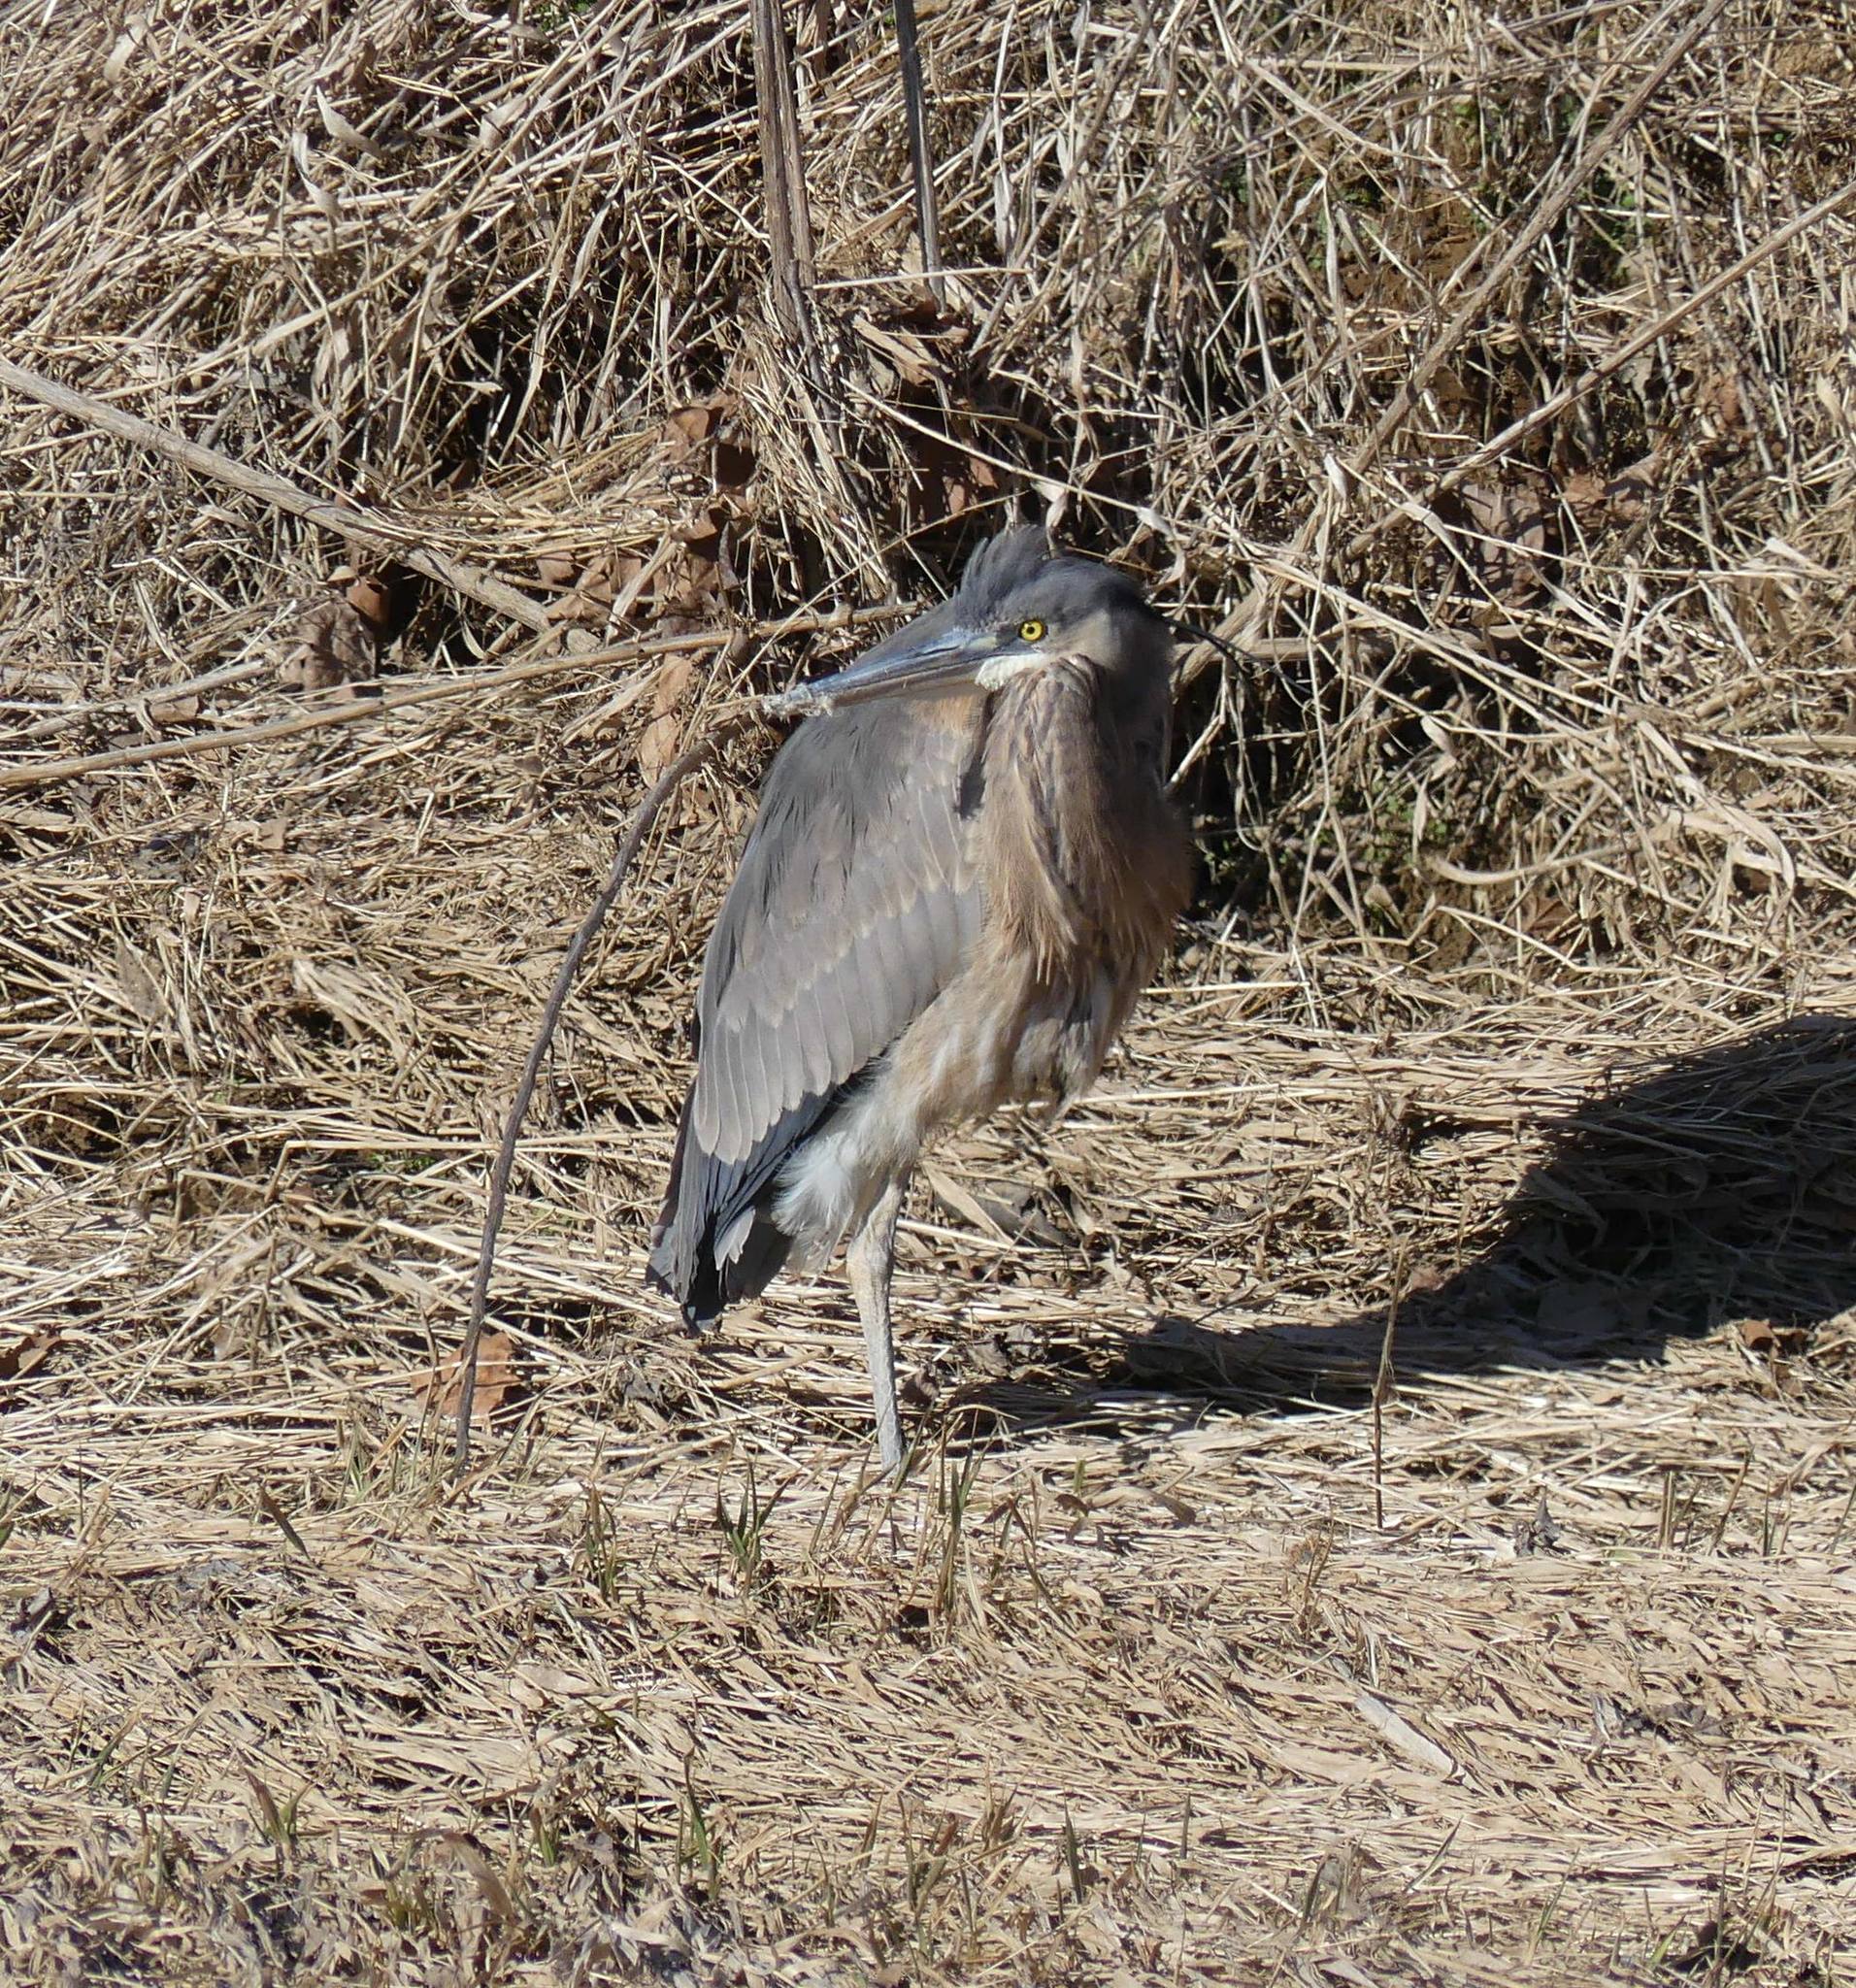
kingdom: Animalia
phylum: Chordata
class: Aves
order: Pelecaniformes
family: Ardeidae
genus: Ardea
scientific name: Ardea herodias
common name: Great blue heron
